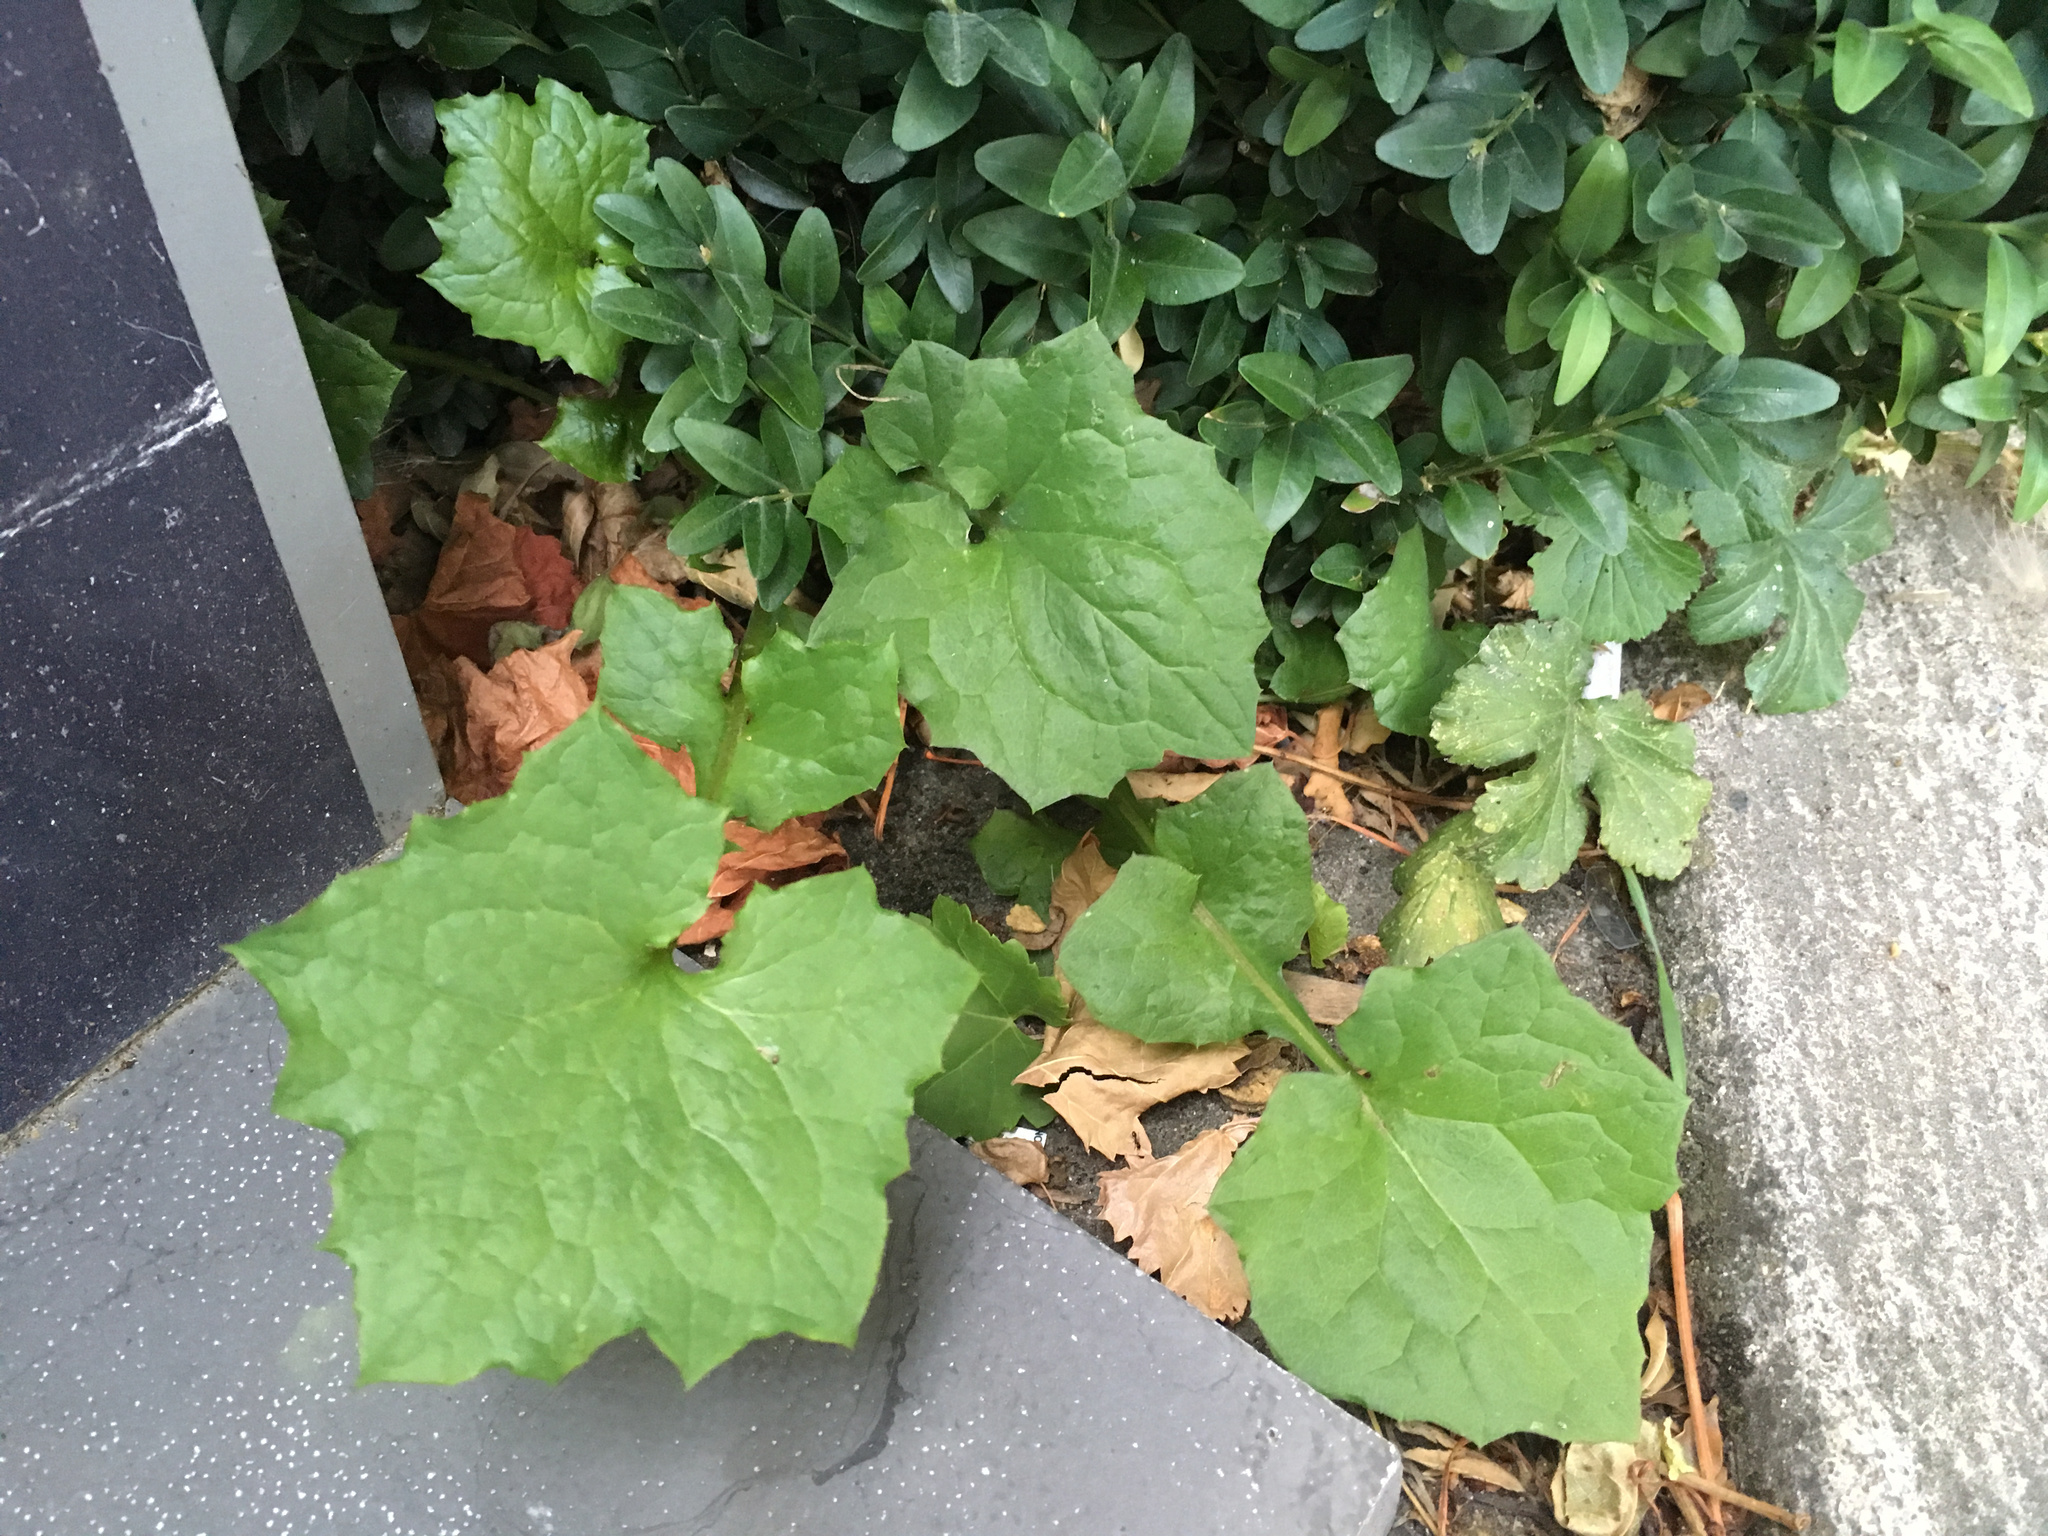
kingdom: Plantae
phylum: Tracheophyta
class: Magnoliopsida
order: Asterales
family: Asteraceae
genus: Mycelis
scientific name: Mycelis muralis
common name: Wall lettuce
